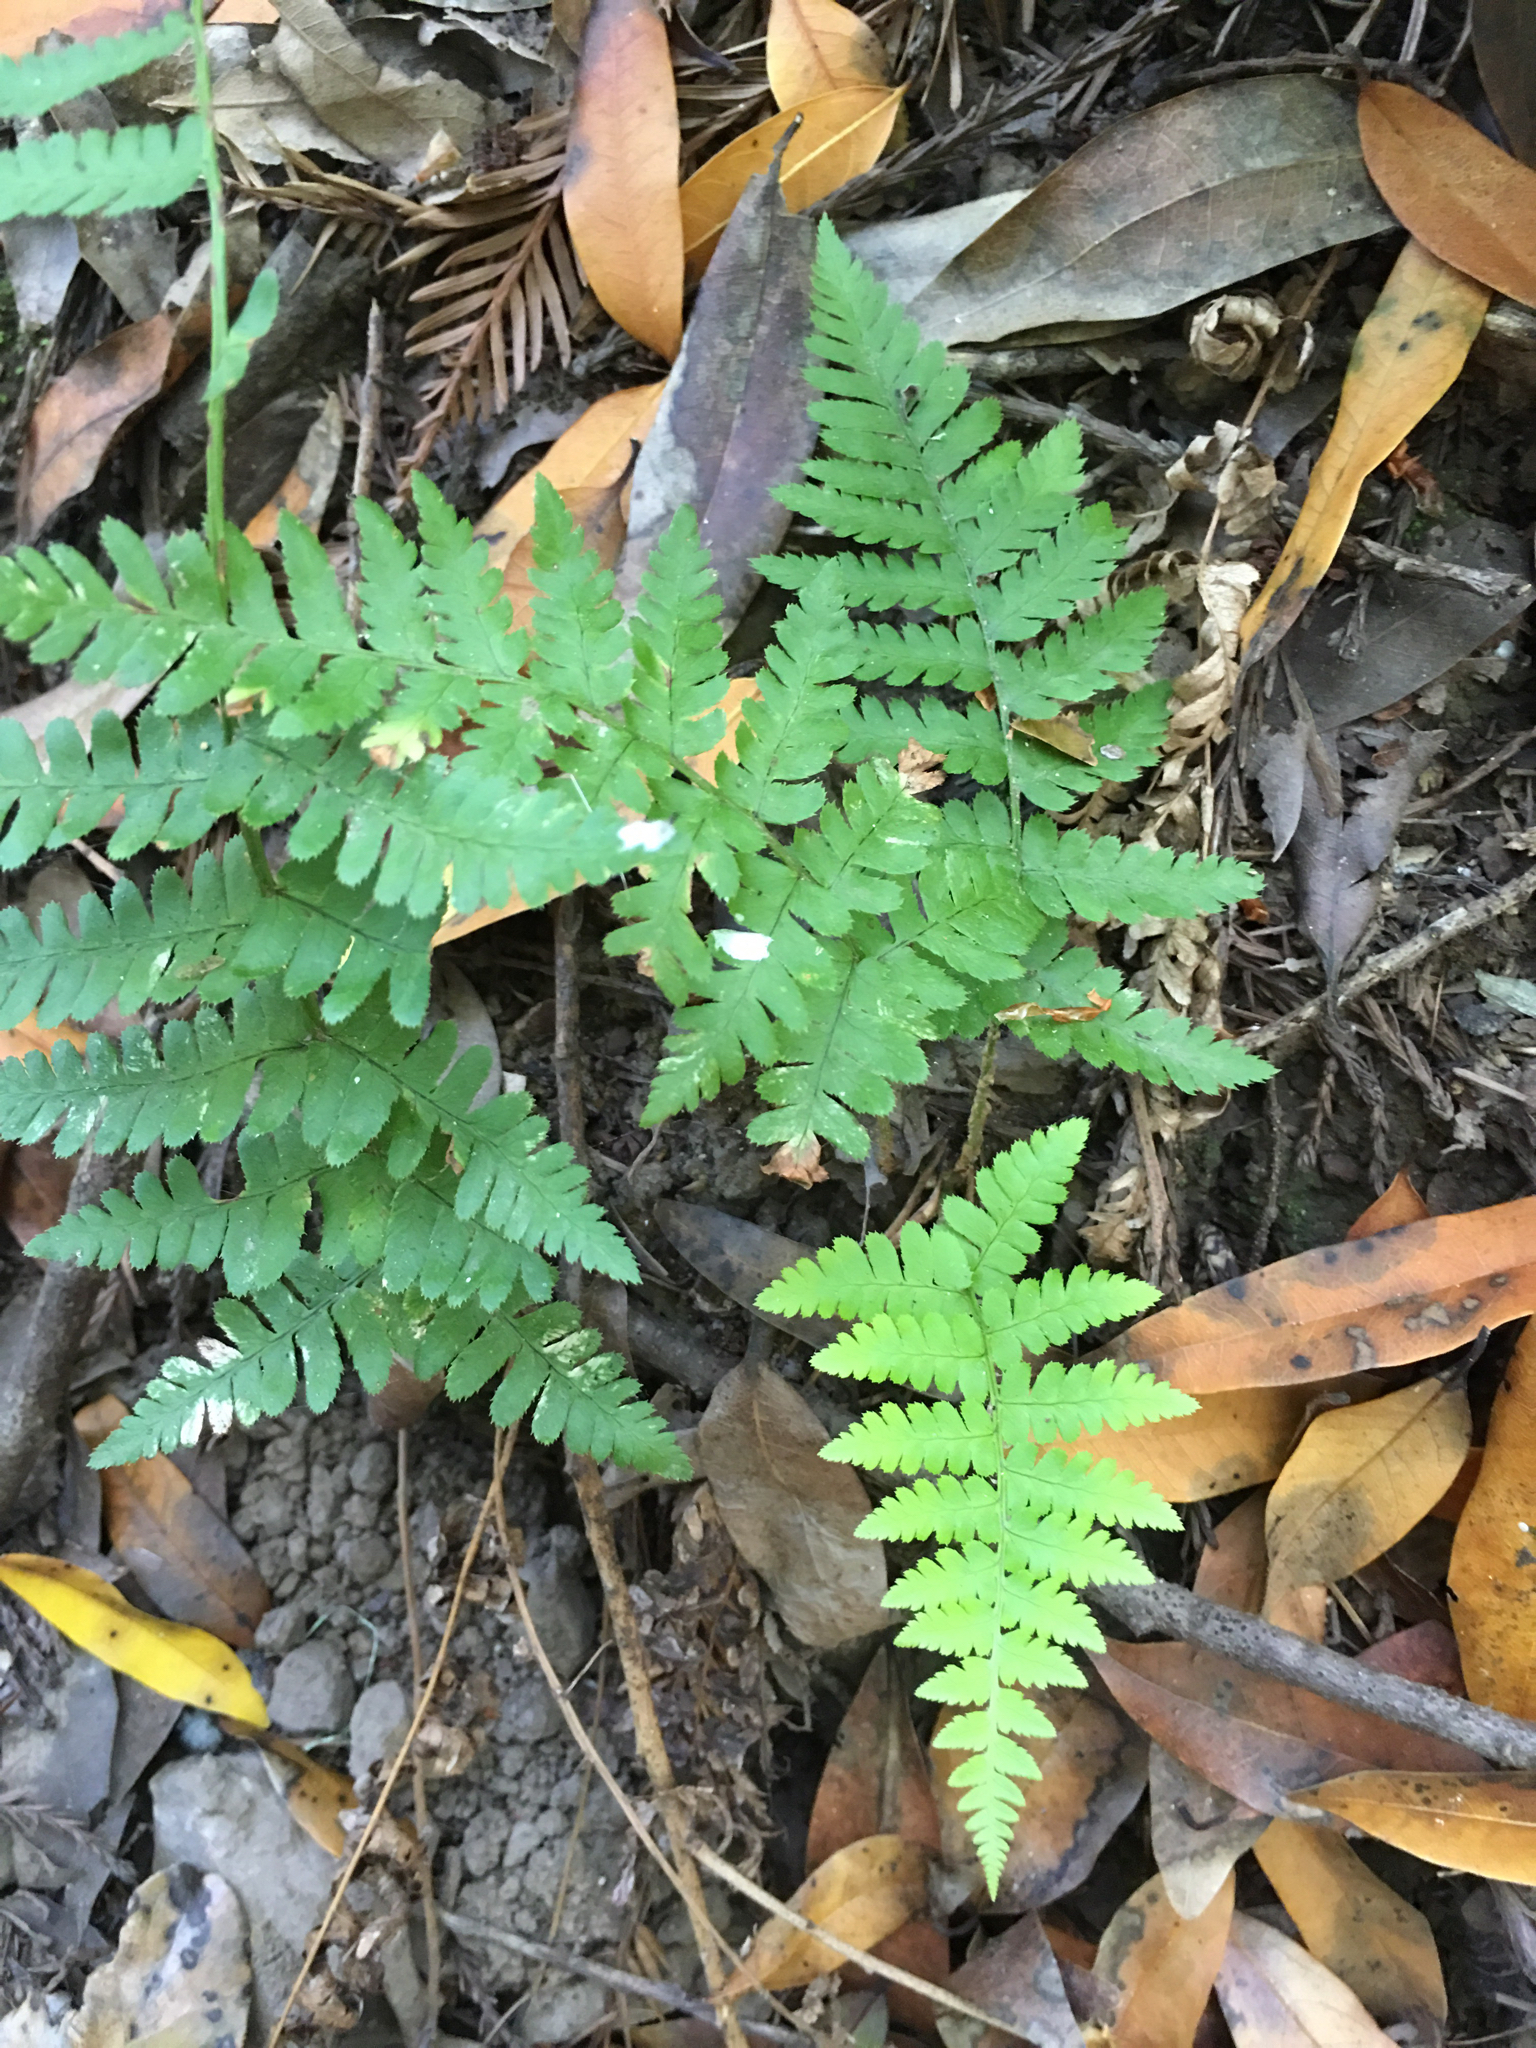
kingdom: Plantae
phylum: Tracheophyta
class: Polypodiopsida
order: Polypodiales
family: Dryopteridaceae
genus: Dryopteris
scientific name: Dryopteris arguta
